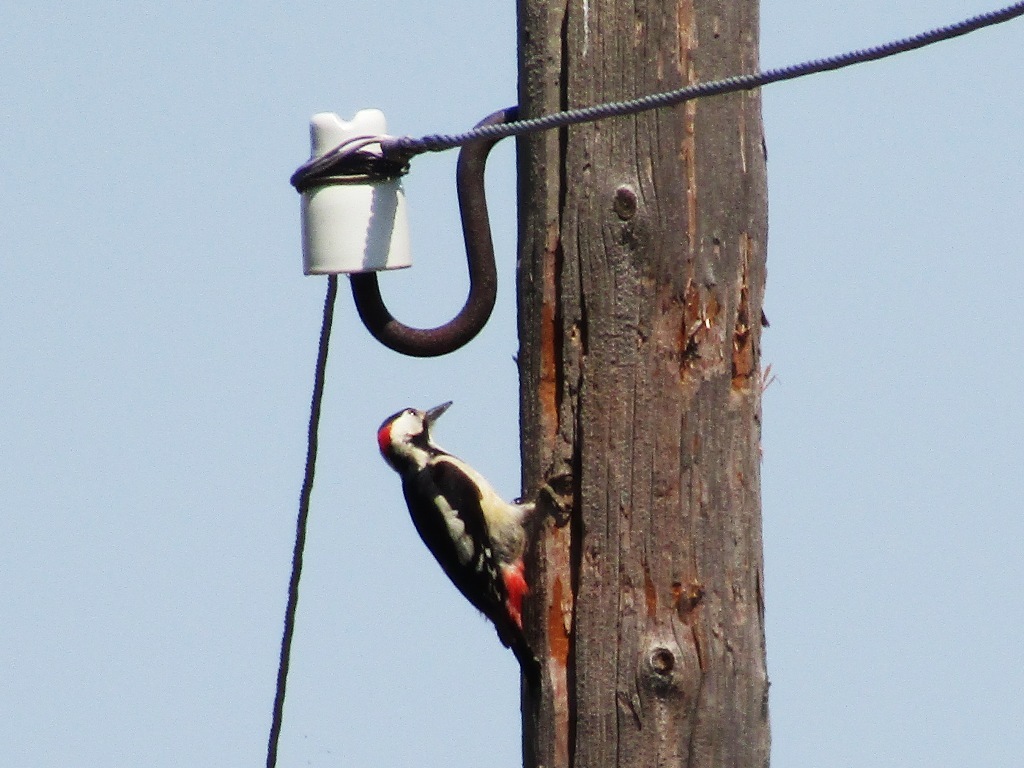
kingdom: Animalia
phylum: Chordata
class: Aves
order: Piciformes
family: Picidae
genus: Dendrocopos
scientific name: Dendrocopos syriacus
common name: Syrian woodpecker
